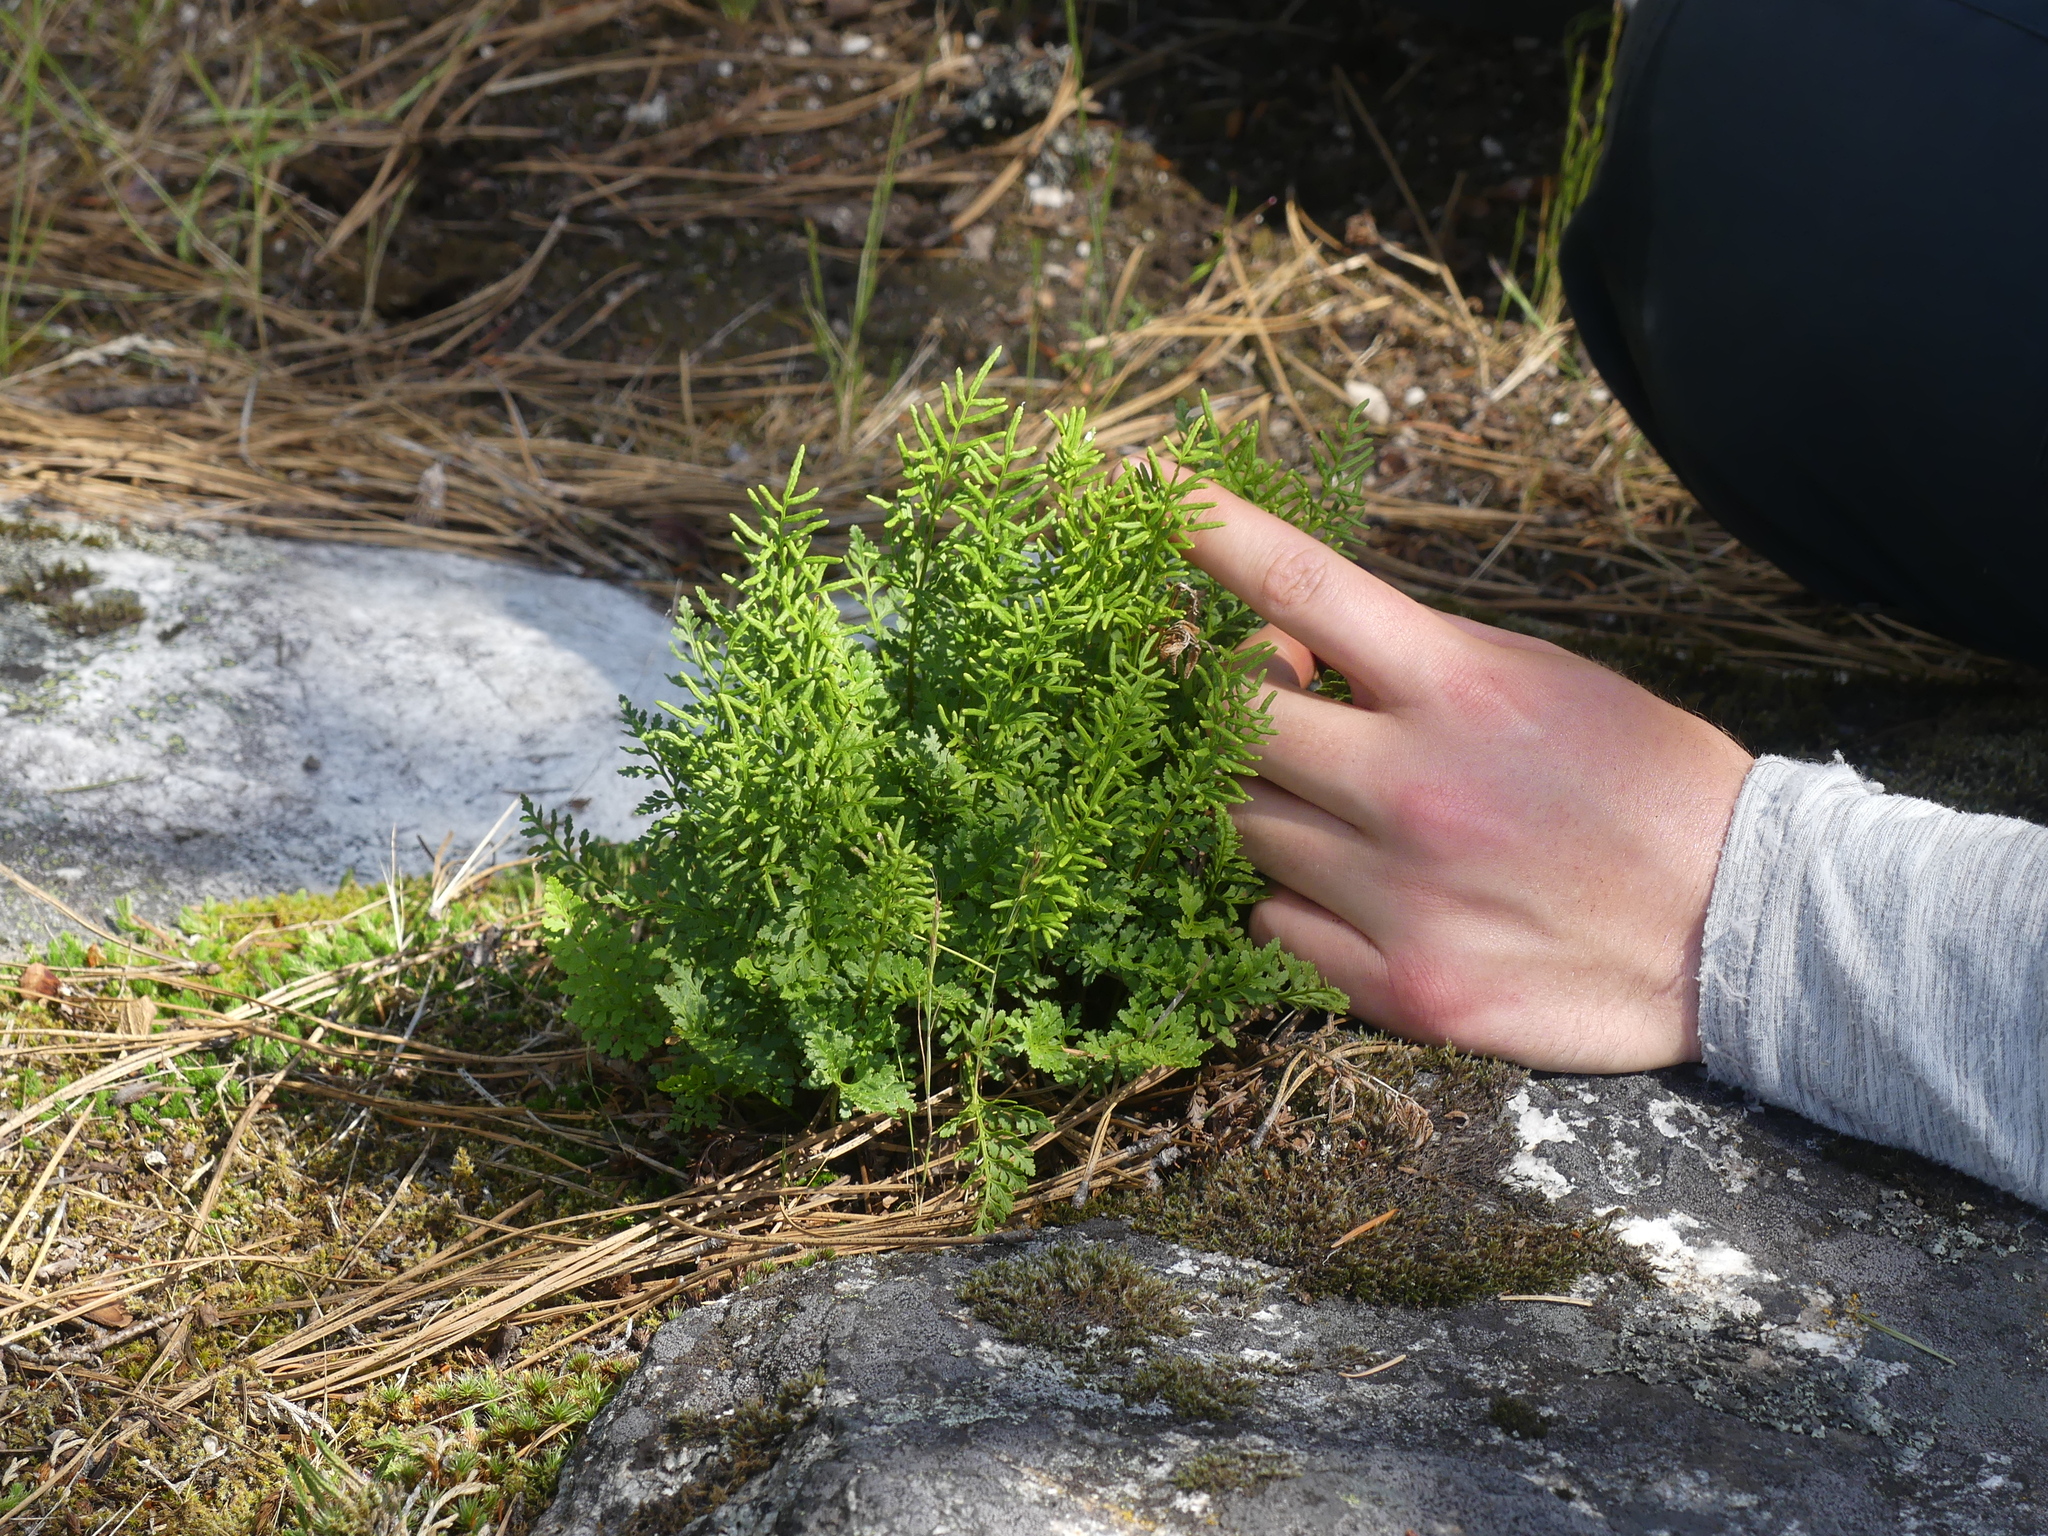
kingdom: Plantae
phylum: Tracheophyta
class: Polypodiopsida
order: Polypodiales
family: Pteridaceae
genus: Cryptogramma
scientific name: Cryptogramma acrostichoides
